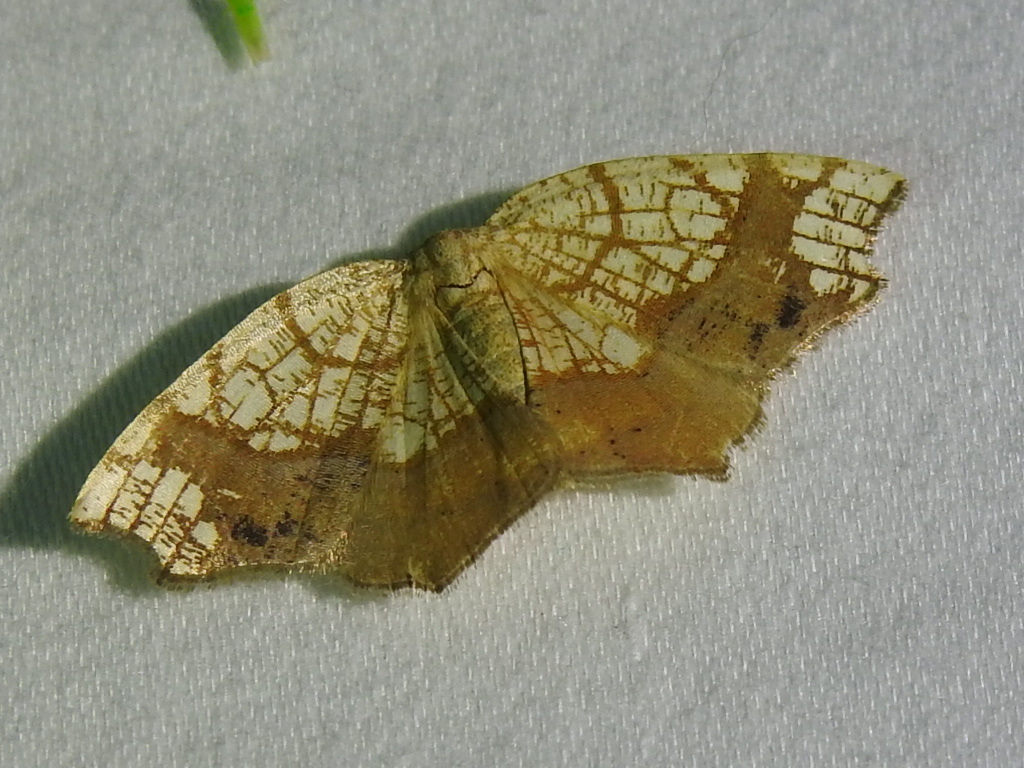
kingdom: Animalia
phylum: Arthropoda
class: Insecta
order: Lepidoptera
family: Geometridae
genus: Nematocampa
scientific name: Nematocampa resistaria
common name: Horned spanworm moth
